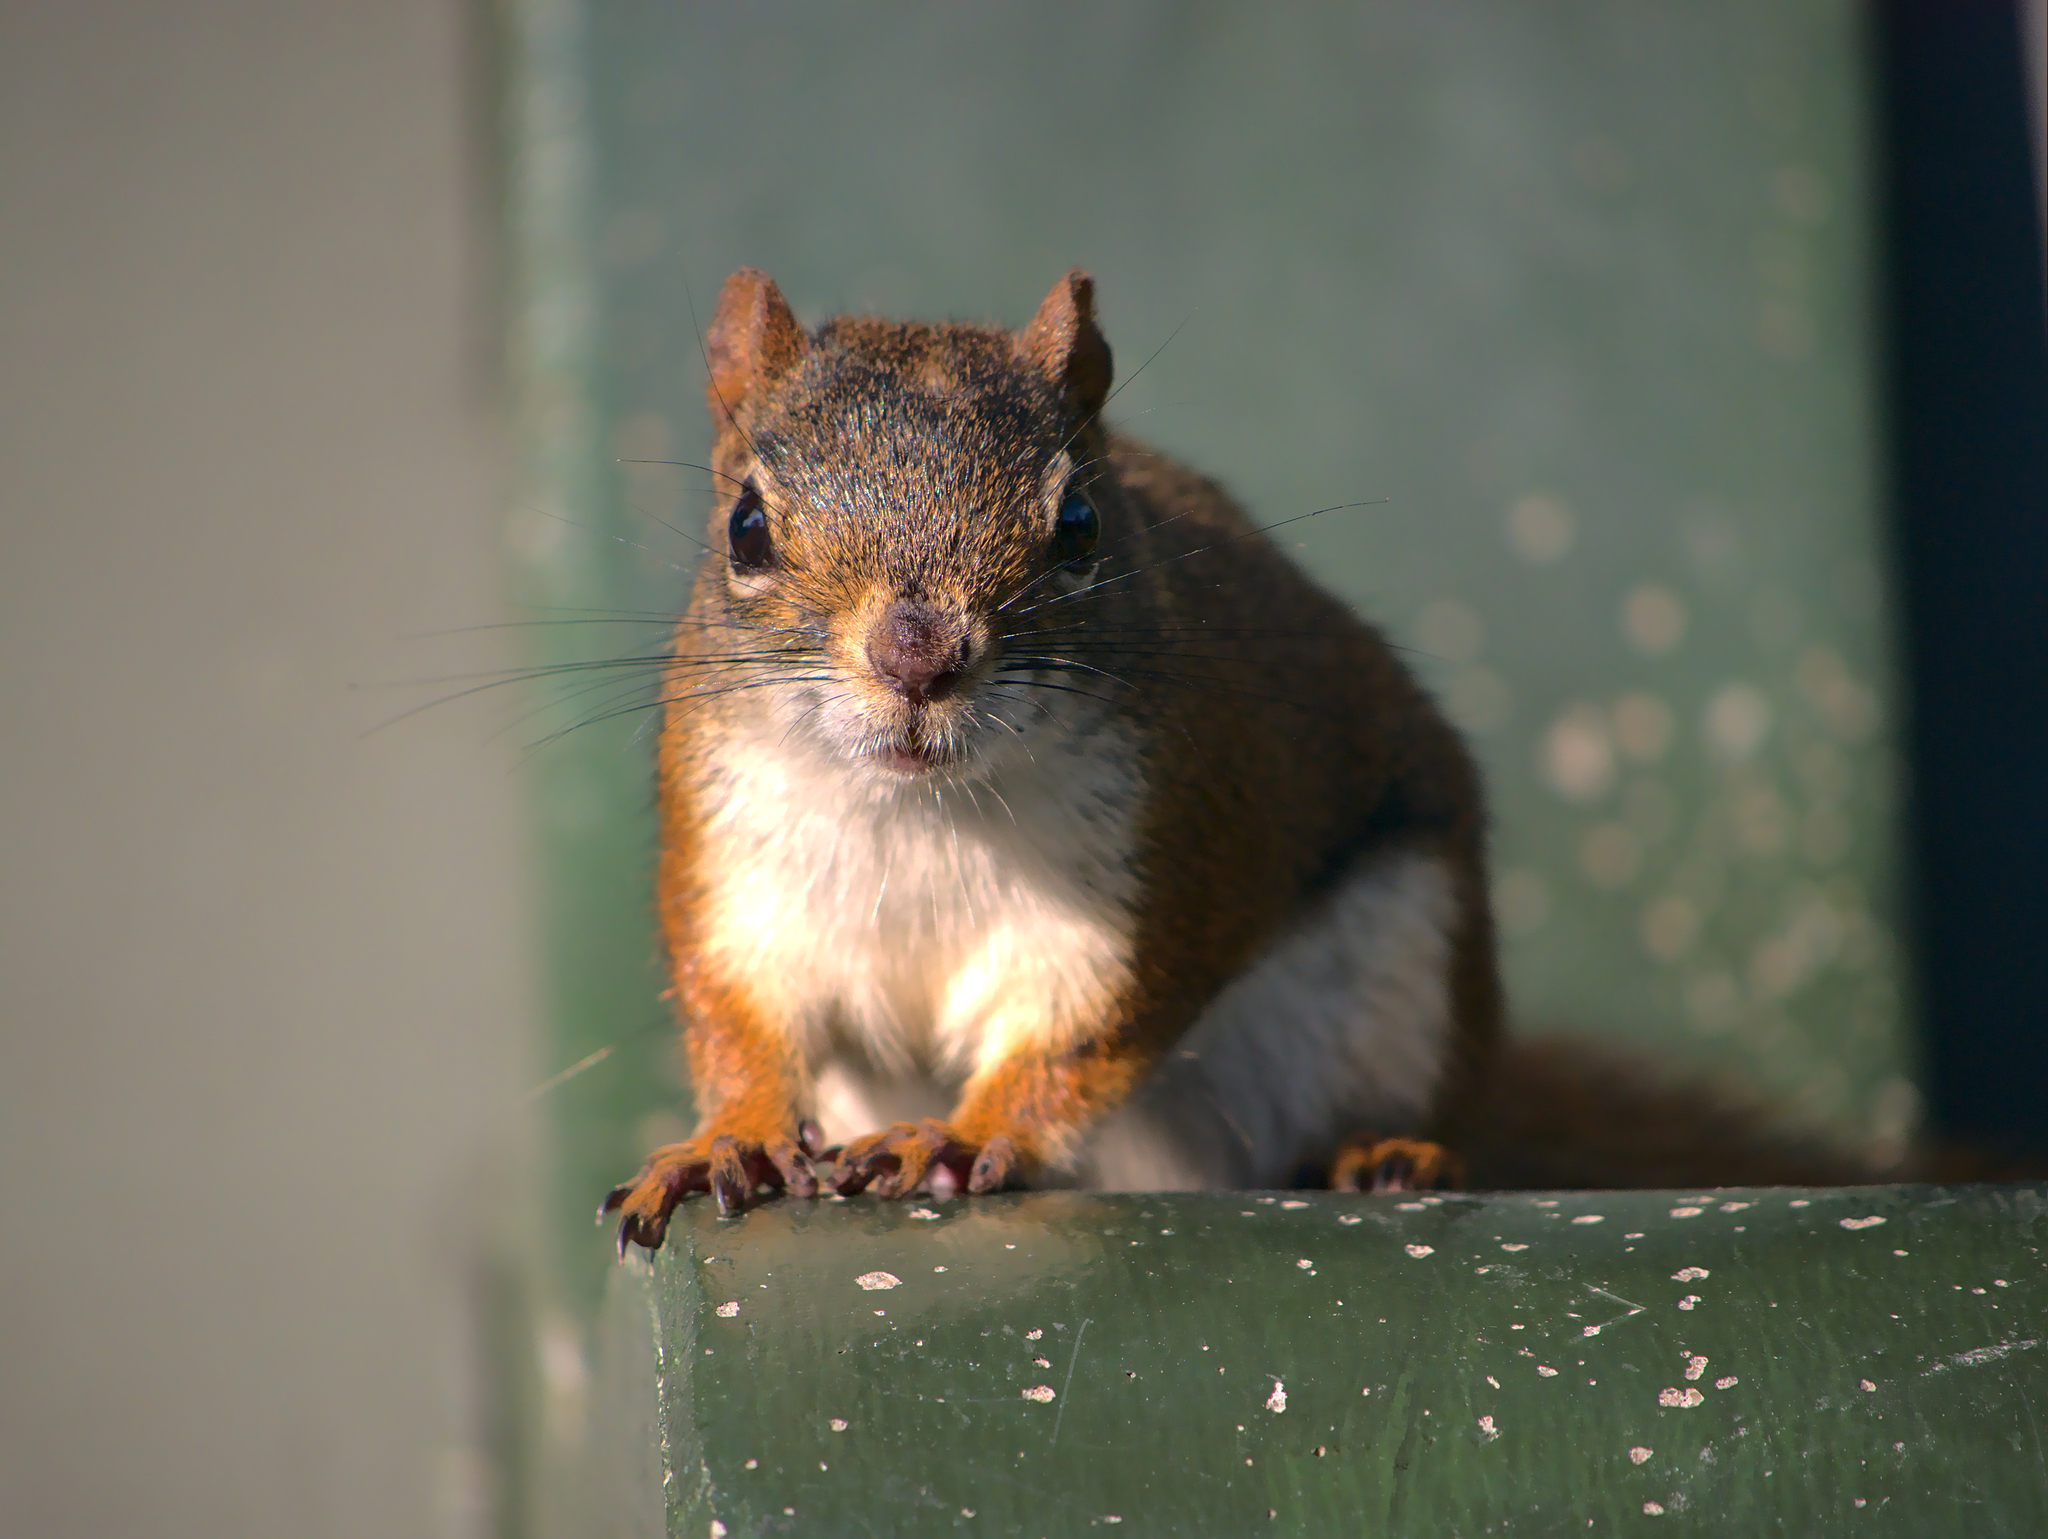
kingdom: Animalia
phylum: Chordata
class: Mammalia
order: Rodentia
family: Sciuridae
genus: Tamiasciurus
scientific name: Tamiasciurus hudsonicus
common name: Red squirrel
